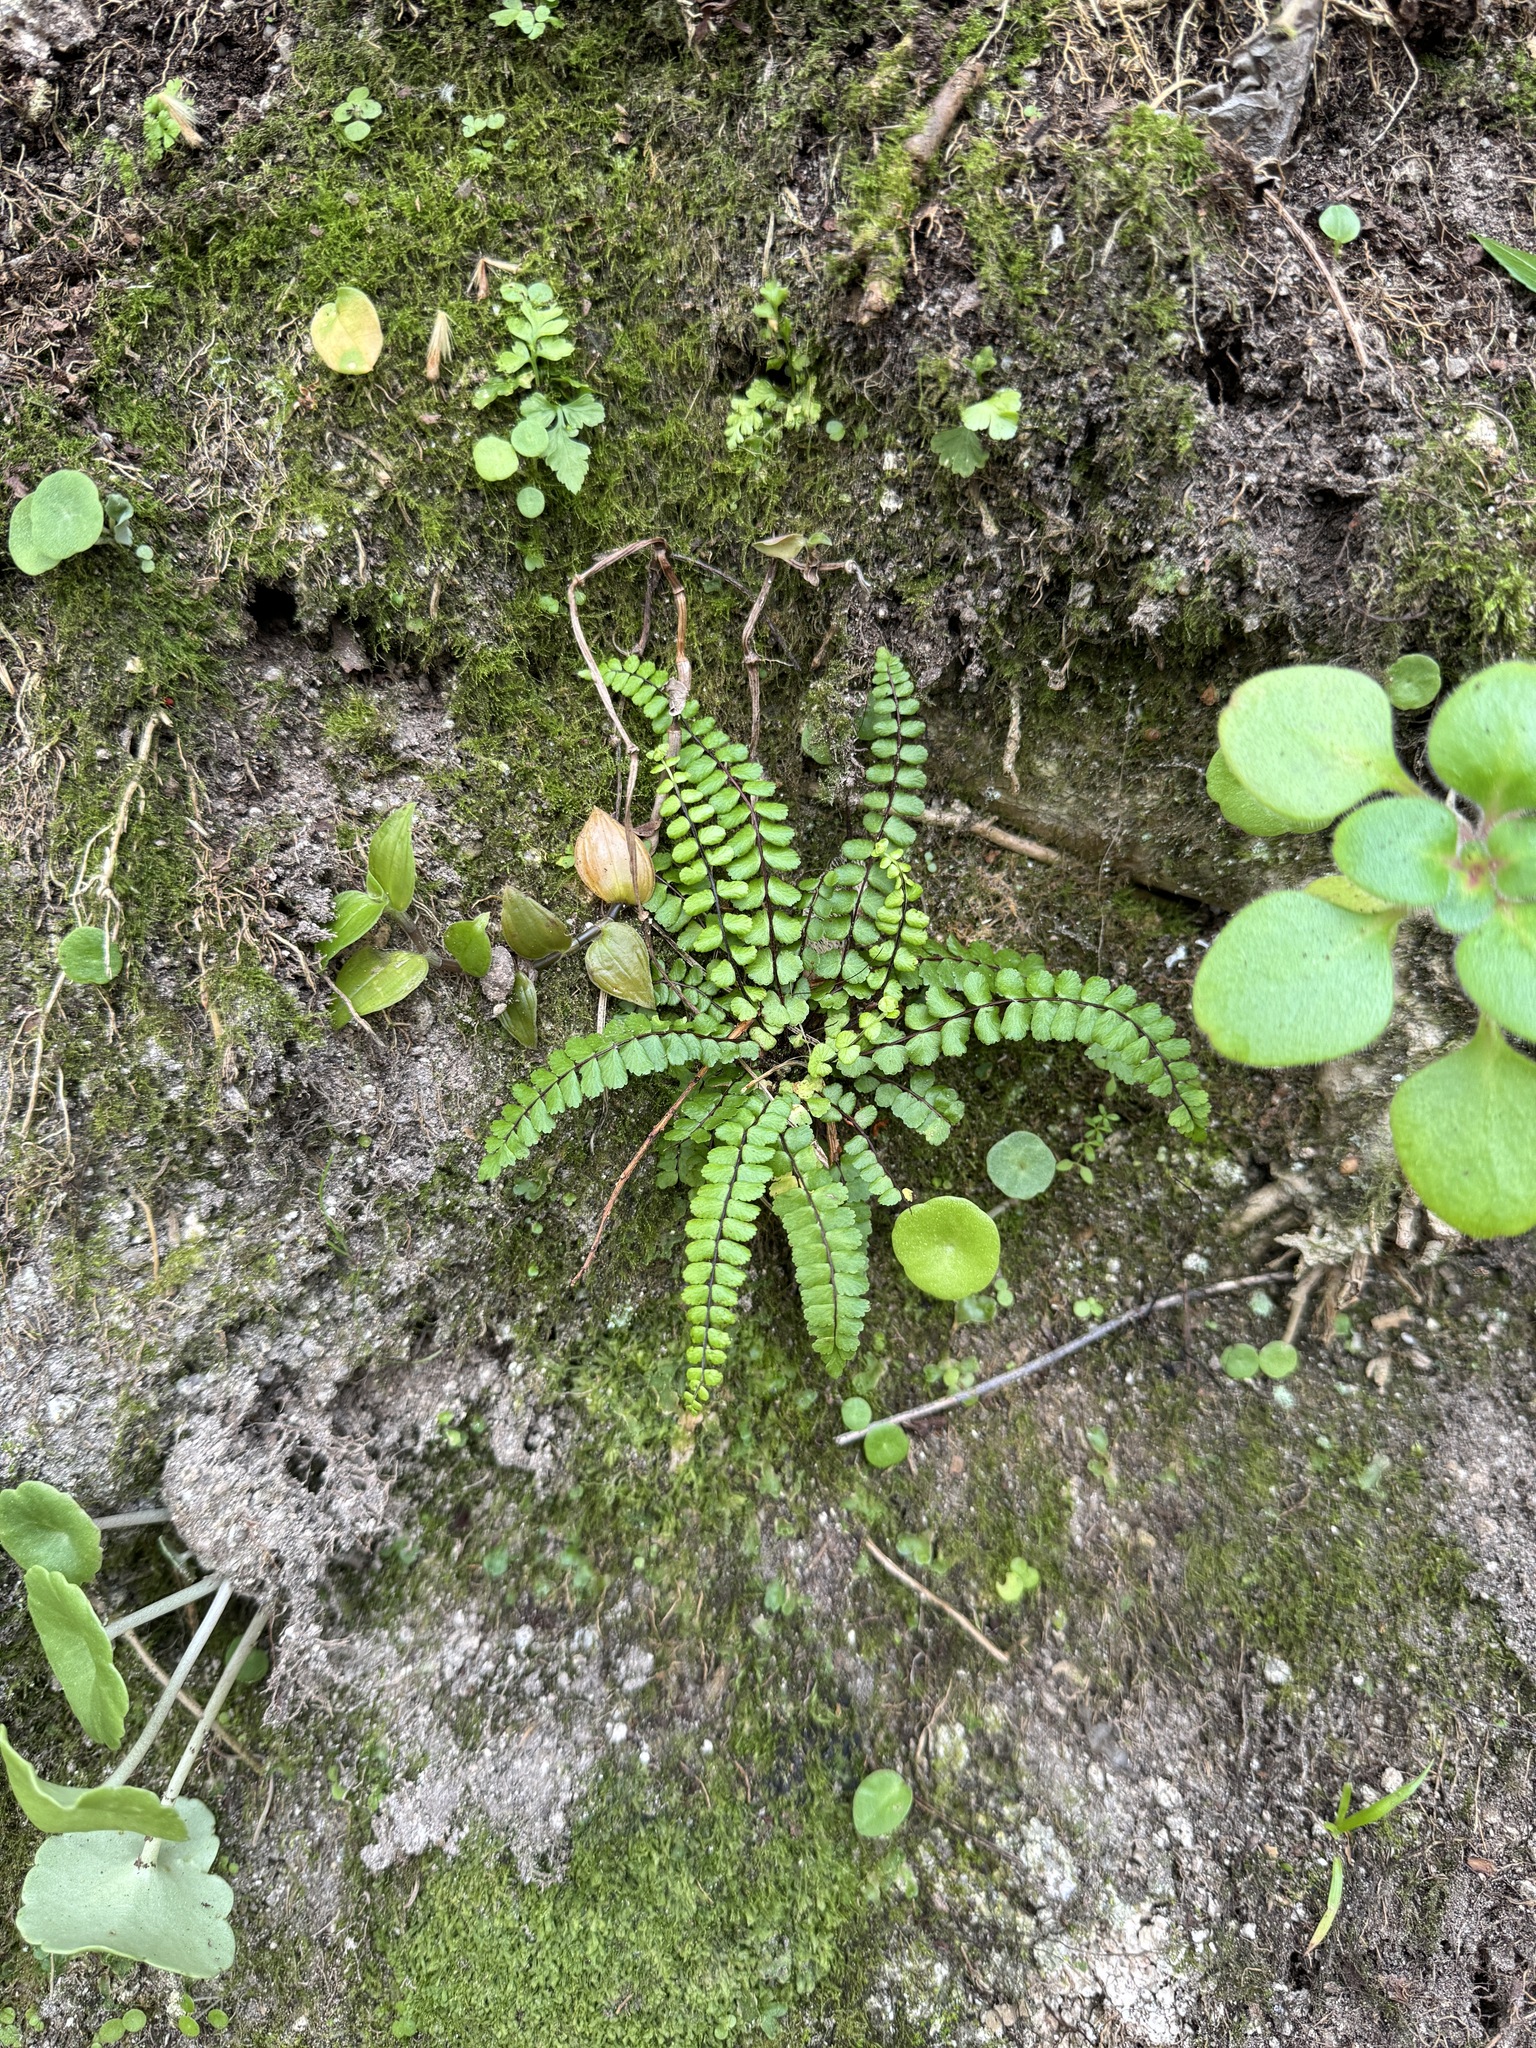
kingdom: Plantae
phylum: Tracheophyta
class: Polypodiopsida
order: Polypodiales
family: Aspleniaceae
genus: Asplenium
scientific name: Asplenium trichomanes
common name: Maidenhair spleenwort
